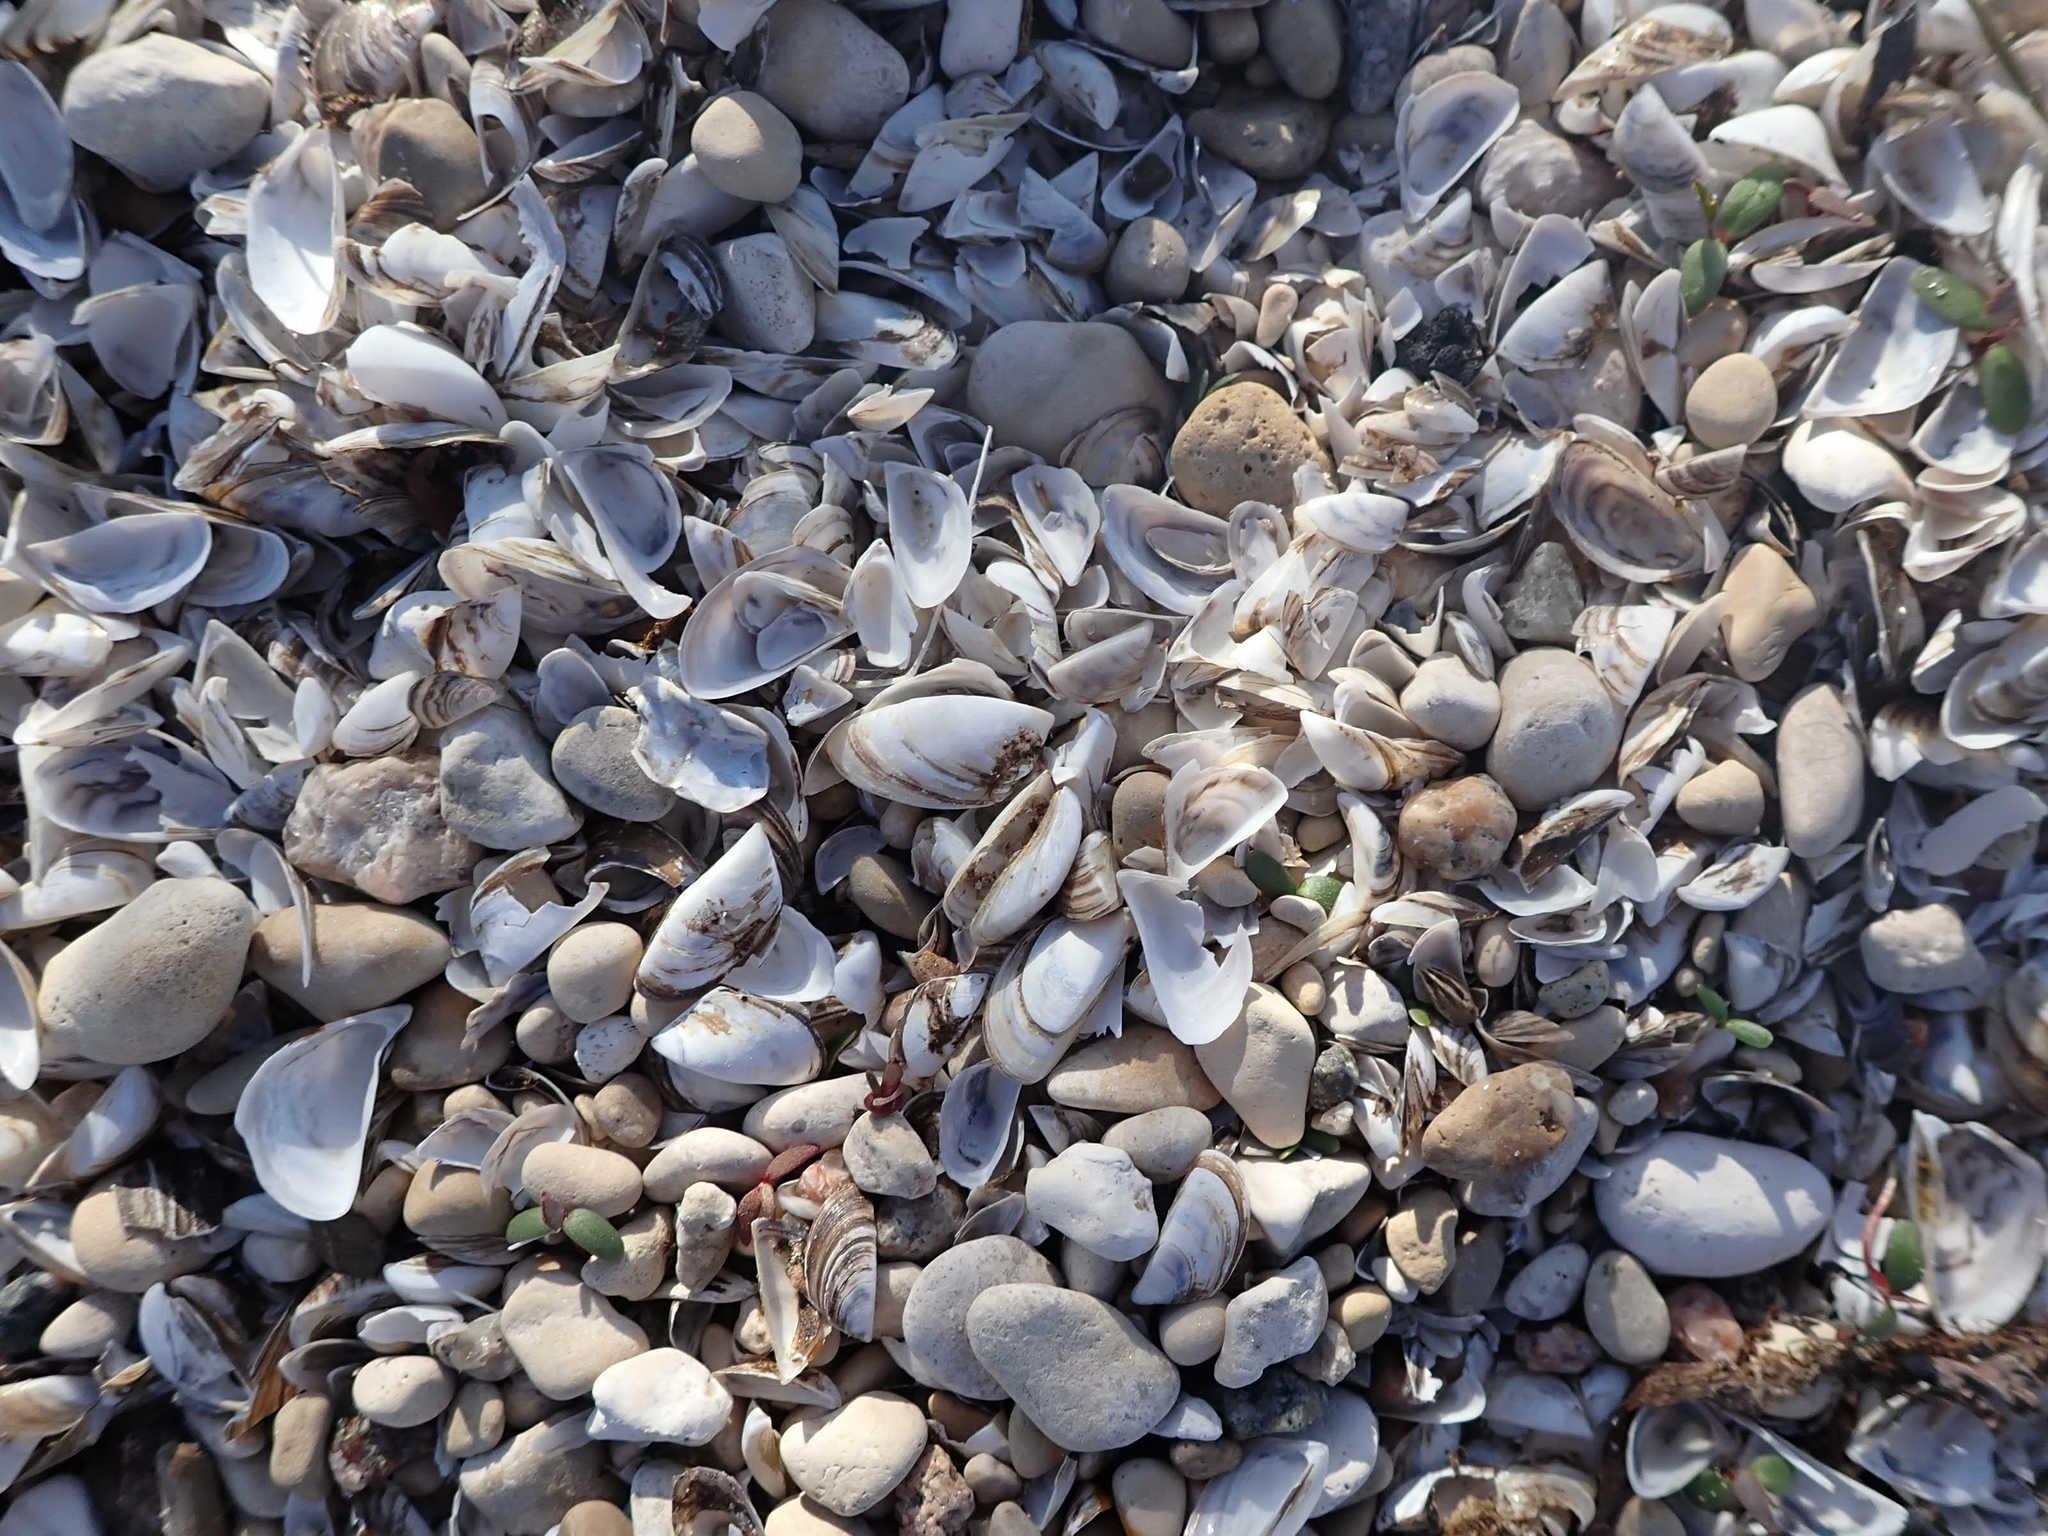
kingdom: Animalia
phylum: Mollusca
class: Bivalvia
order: Myida
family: Dreissenidae
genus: Dreissena
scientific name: Dreissena polymorpha
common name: Zebra mussel
